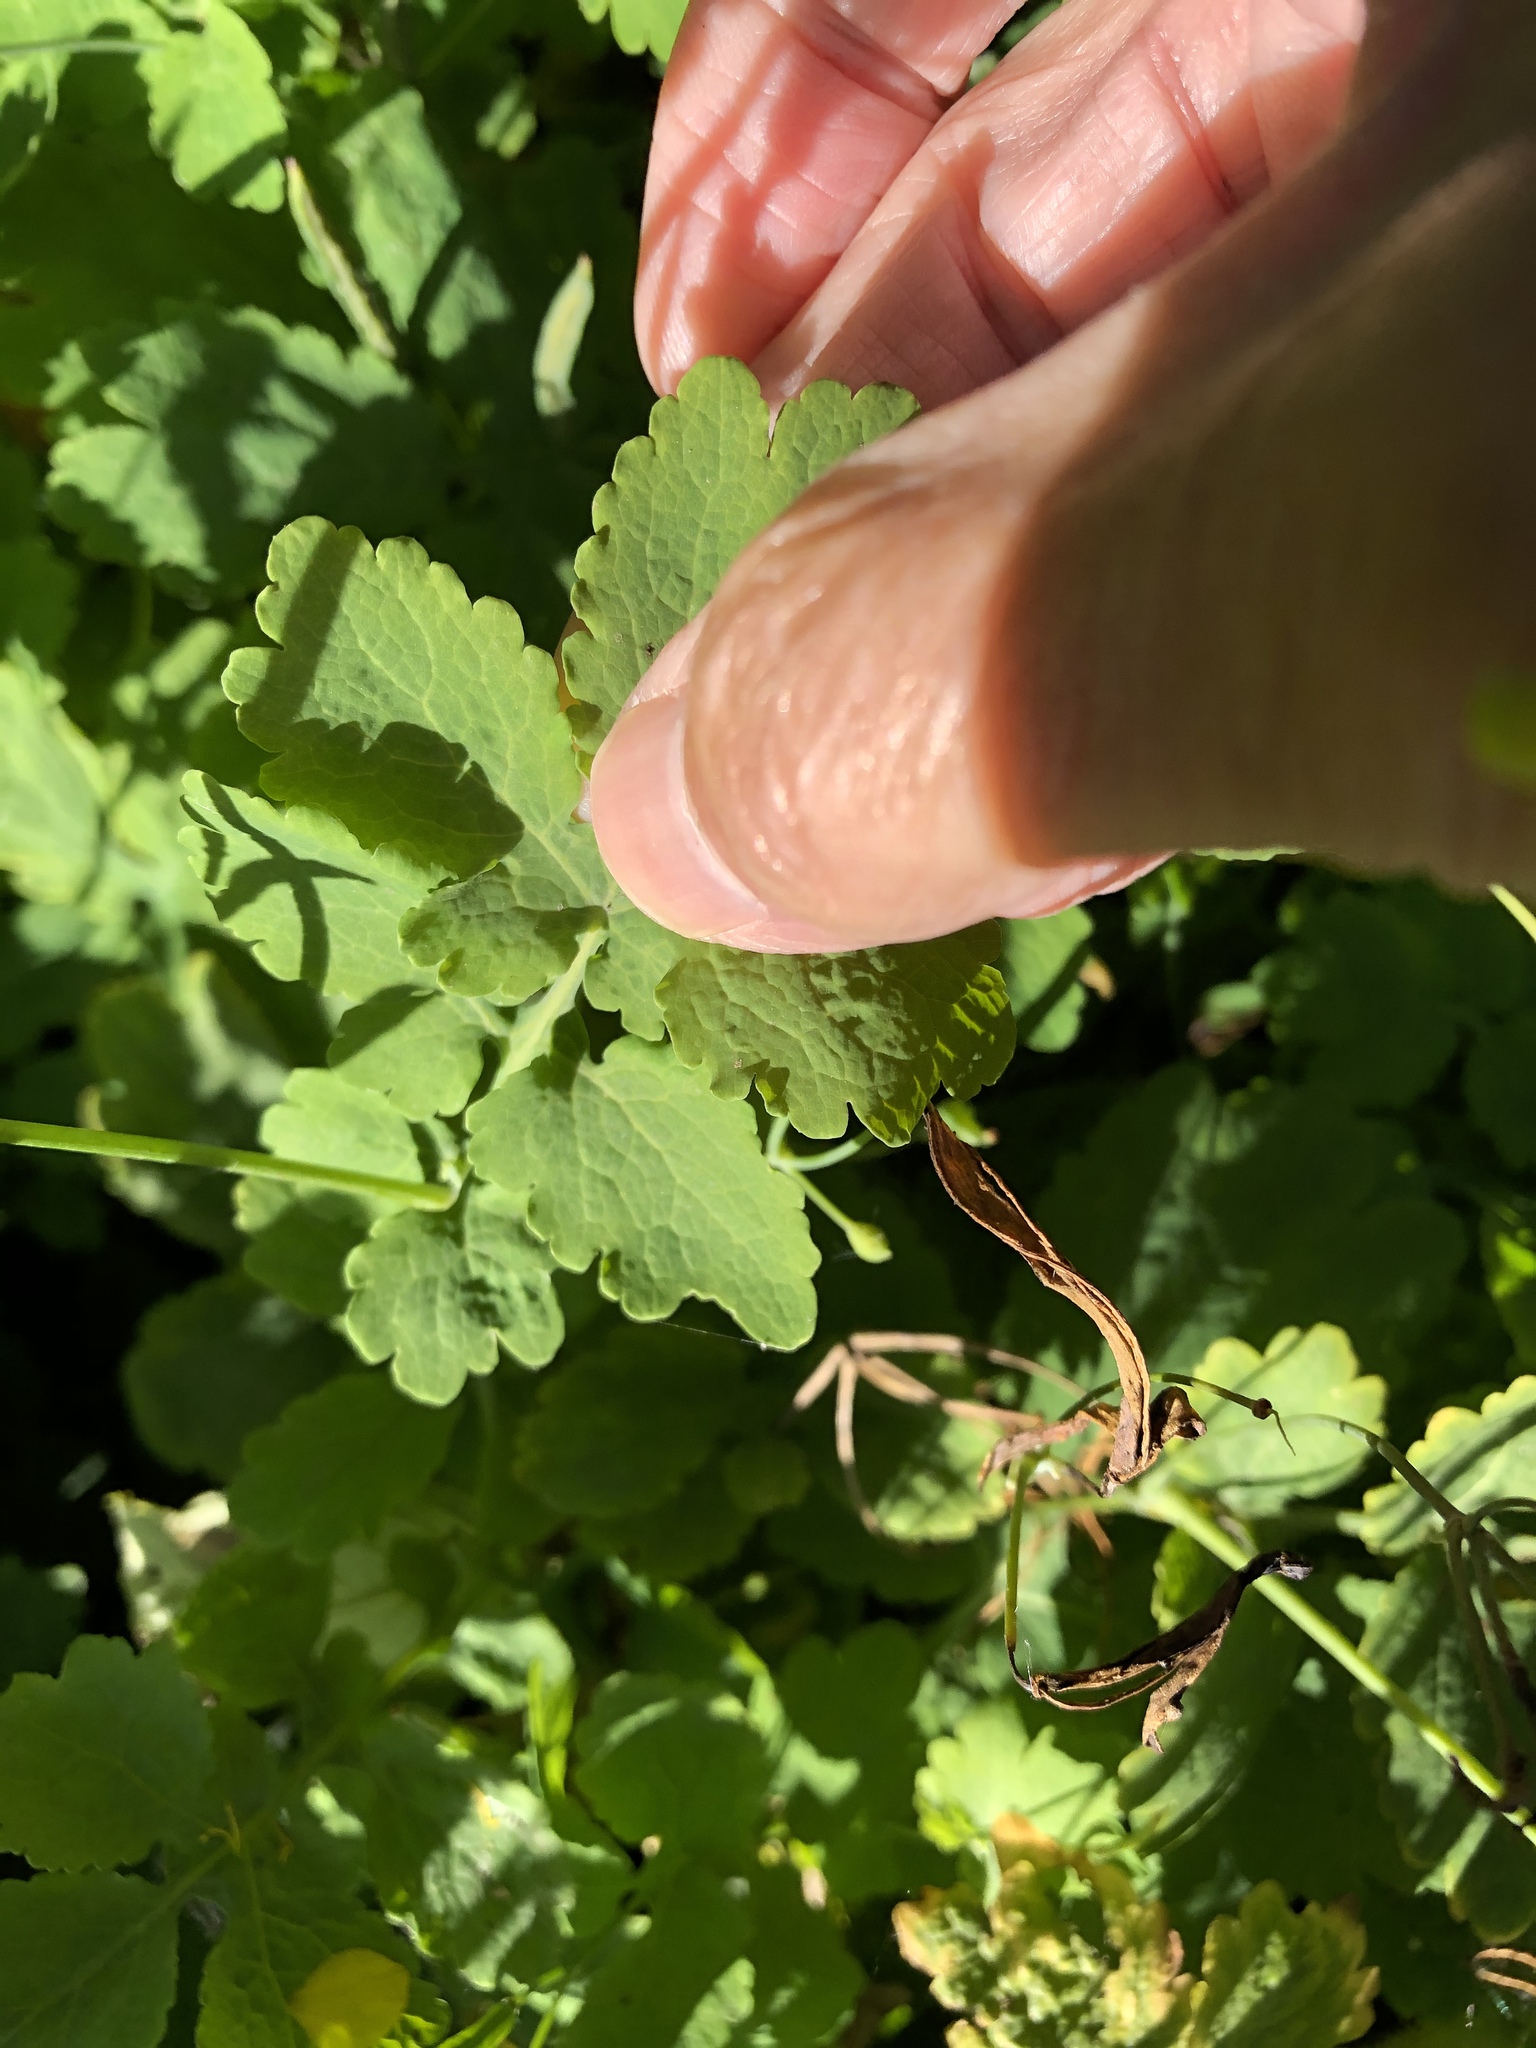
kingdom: Plantae
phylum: Tracheophyta
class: Magnoliopsida
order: Ranunculales
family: Papaveraceae
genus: Chelidonium
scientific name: Chelidonium majus
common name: Greater celandine
